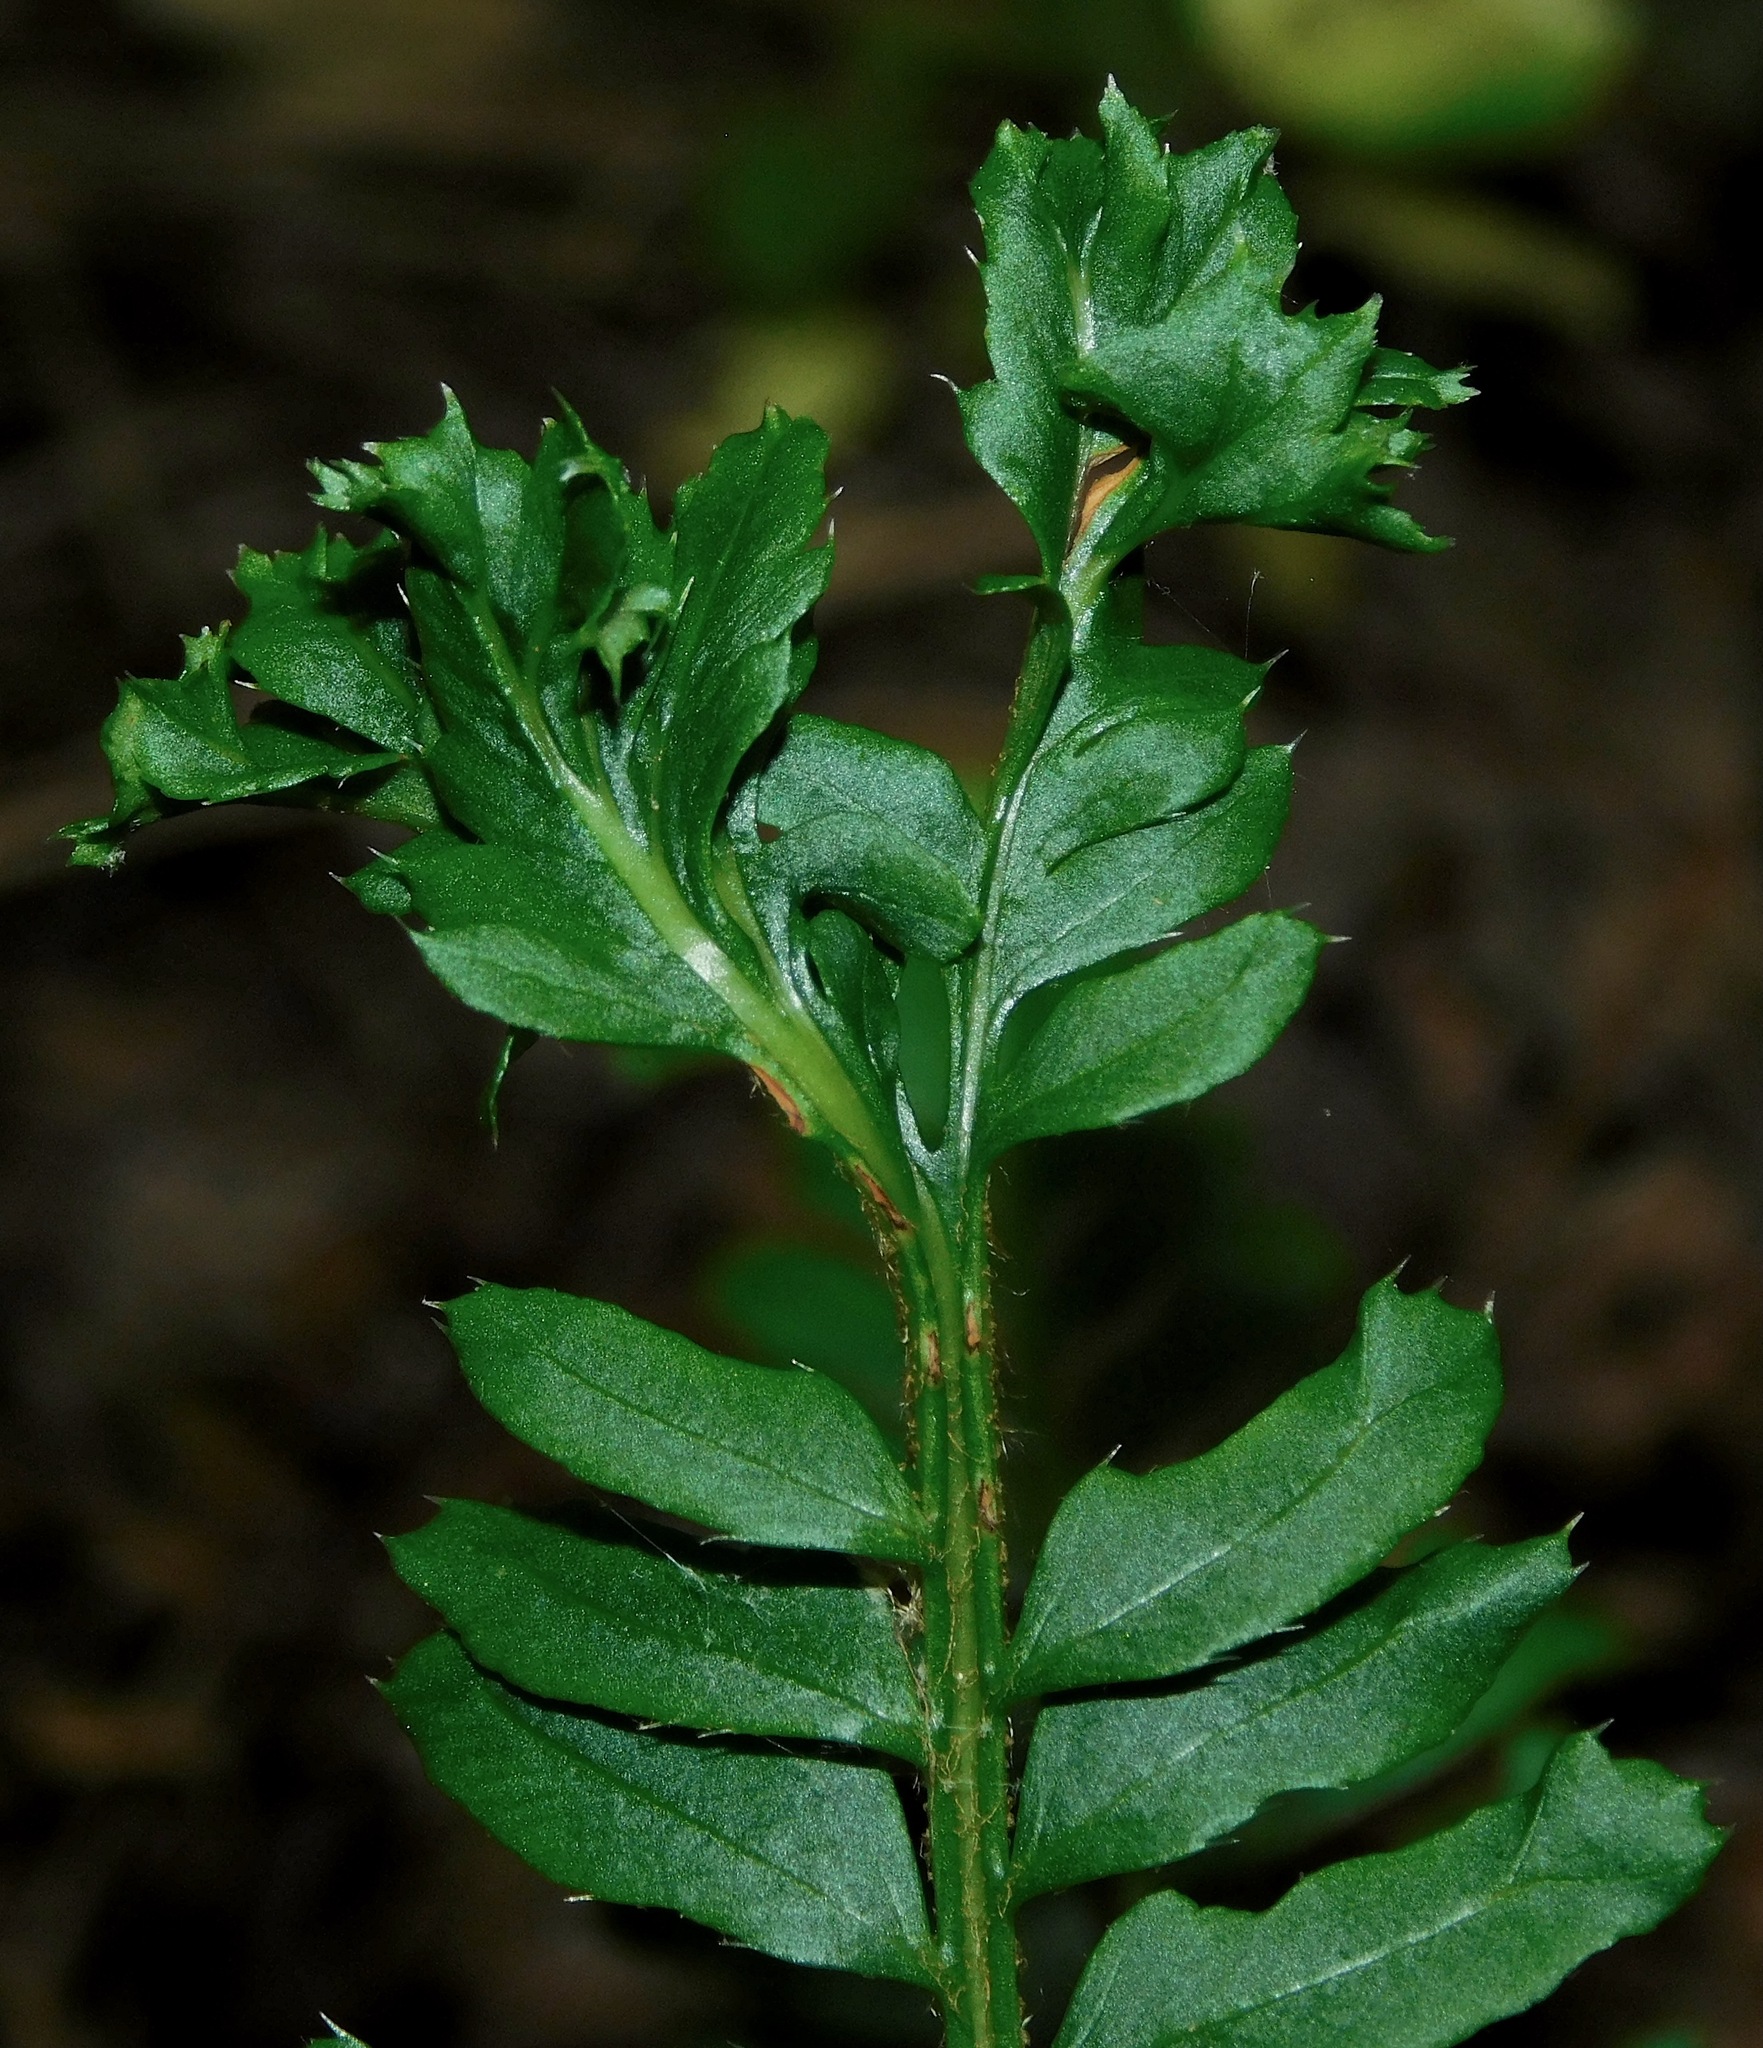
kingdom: Plantae
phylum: Tracheophyta
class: Polypodiopsida
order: Polypodiales
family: Dryopteridaceae
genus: Polystichum
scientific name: Polystichum acrostichoides
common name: Christmas fern
